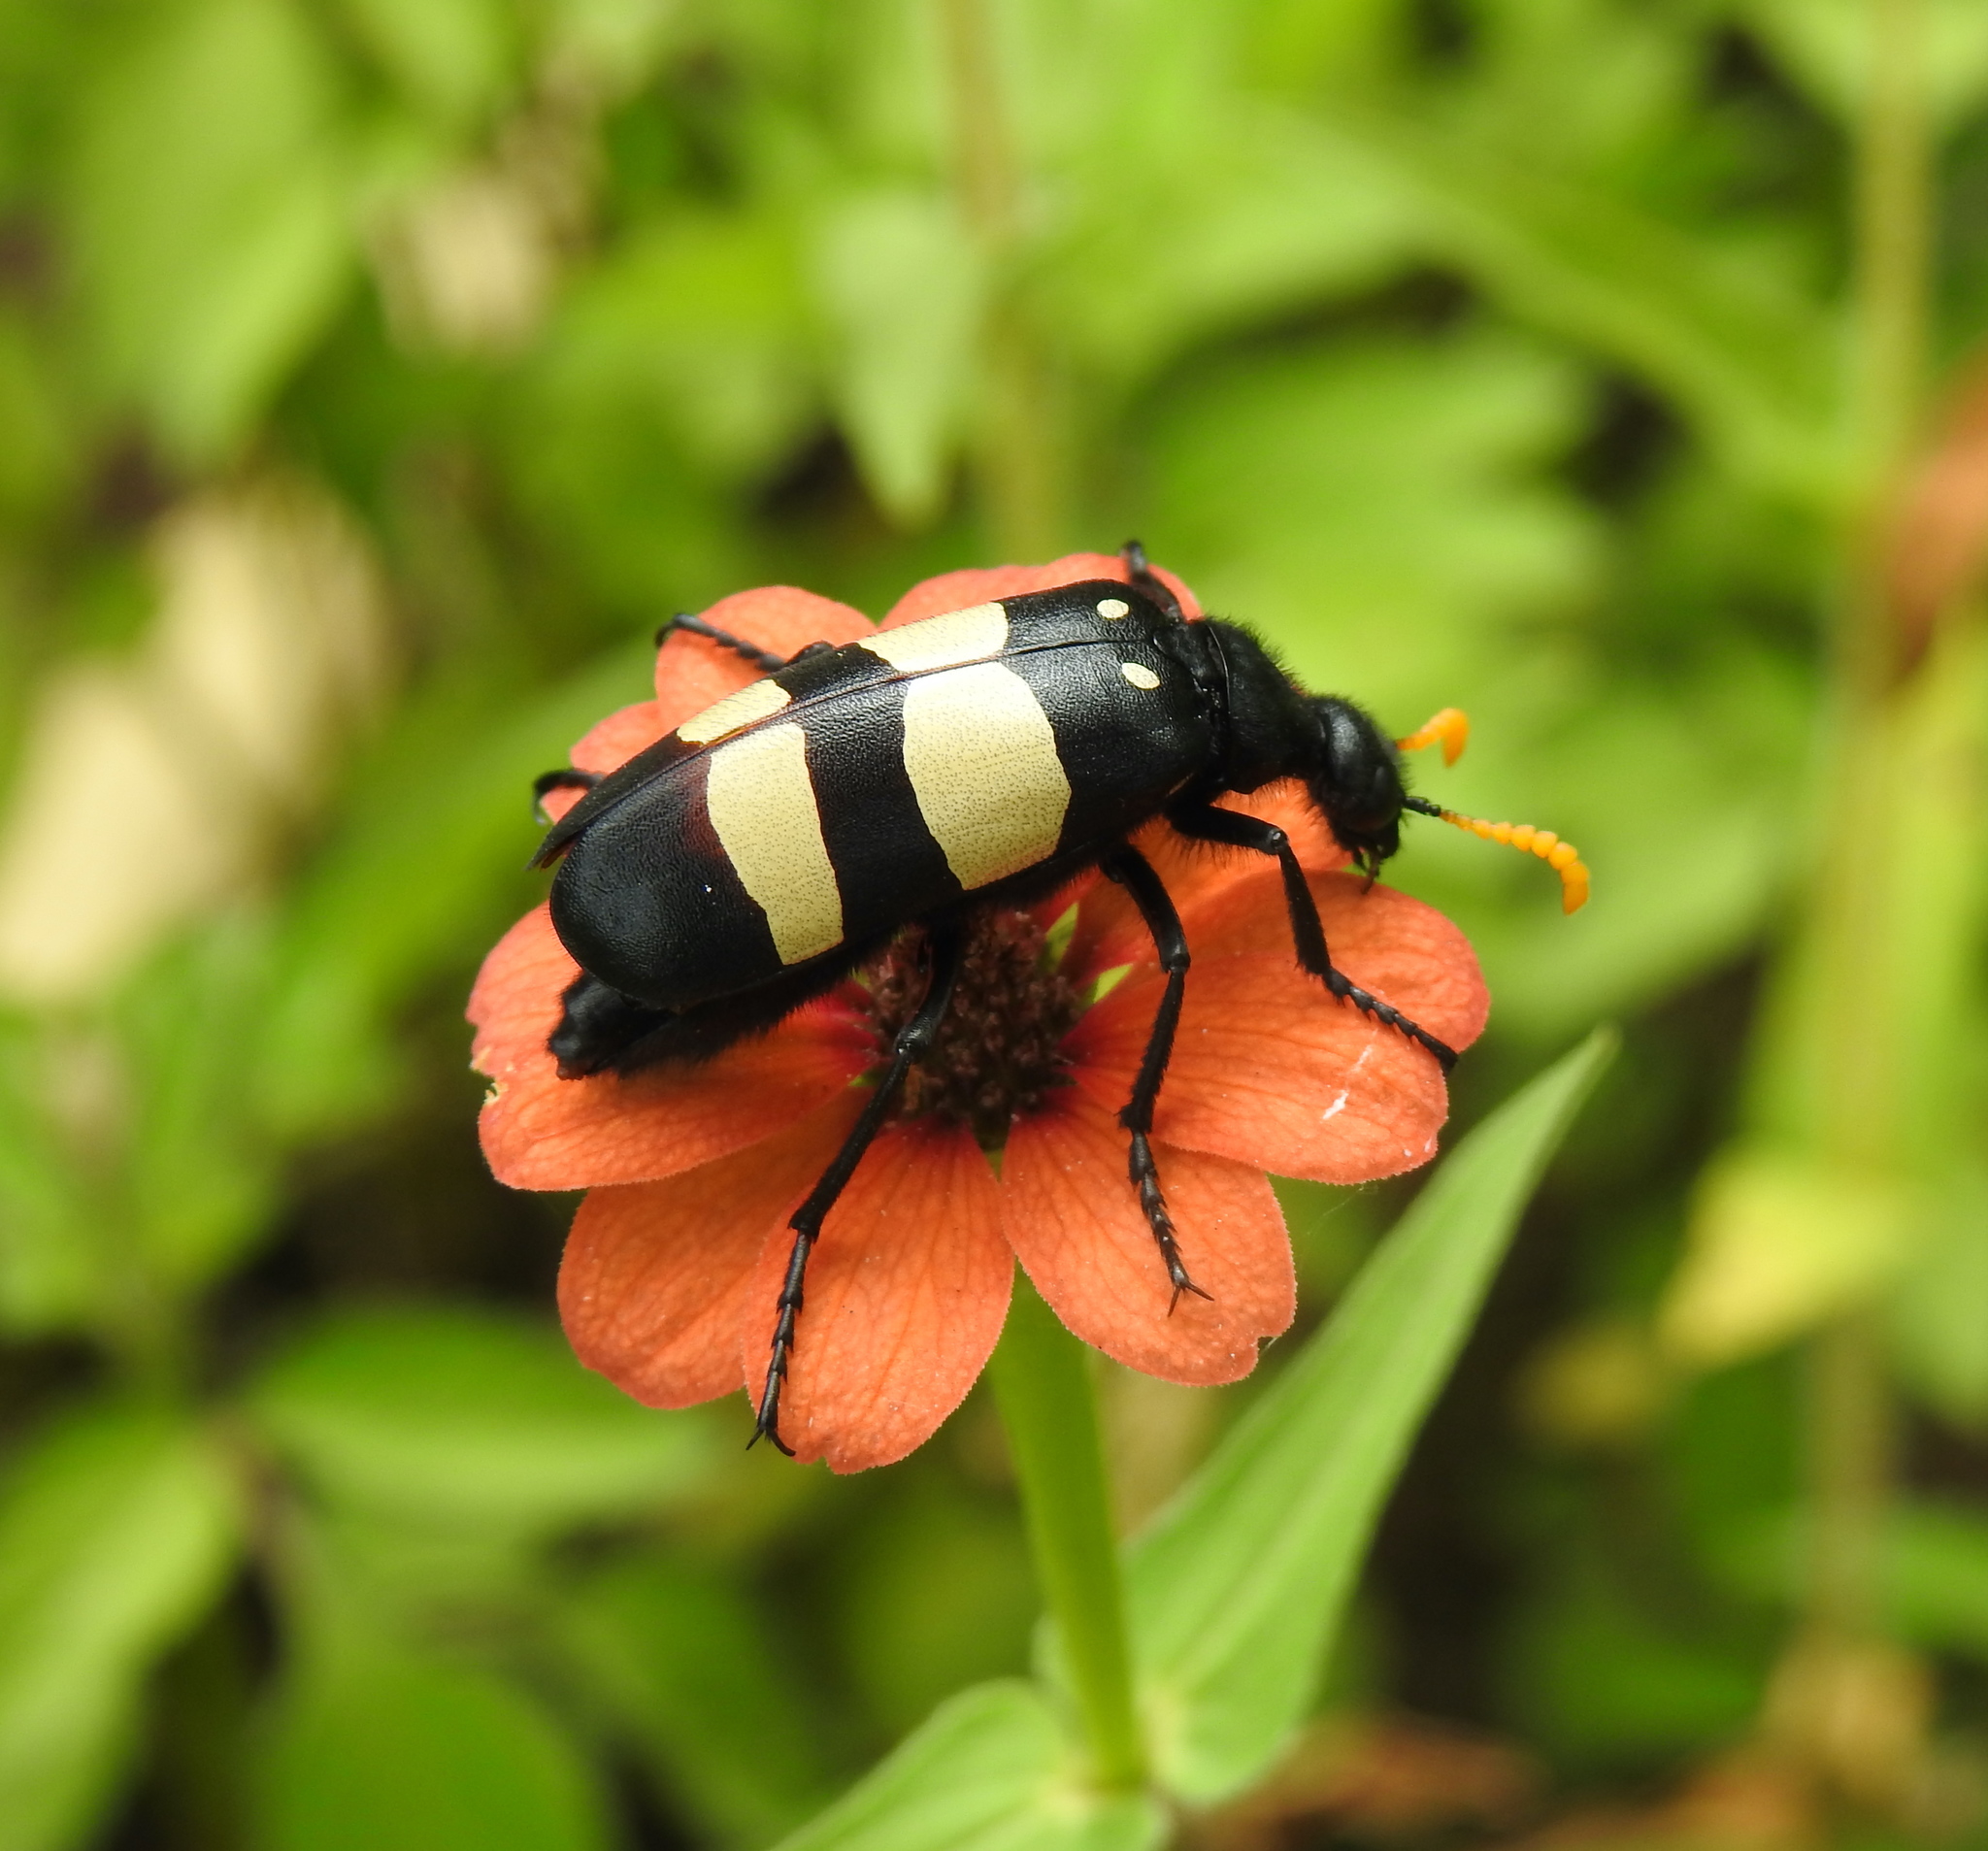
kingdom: Animalia
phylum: Arthropoda
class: Insecta
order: Coleoptera
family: Meloidae
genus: Hycleus
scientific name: Hycleus
